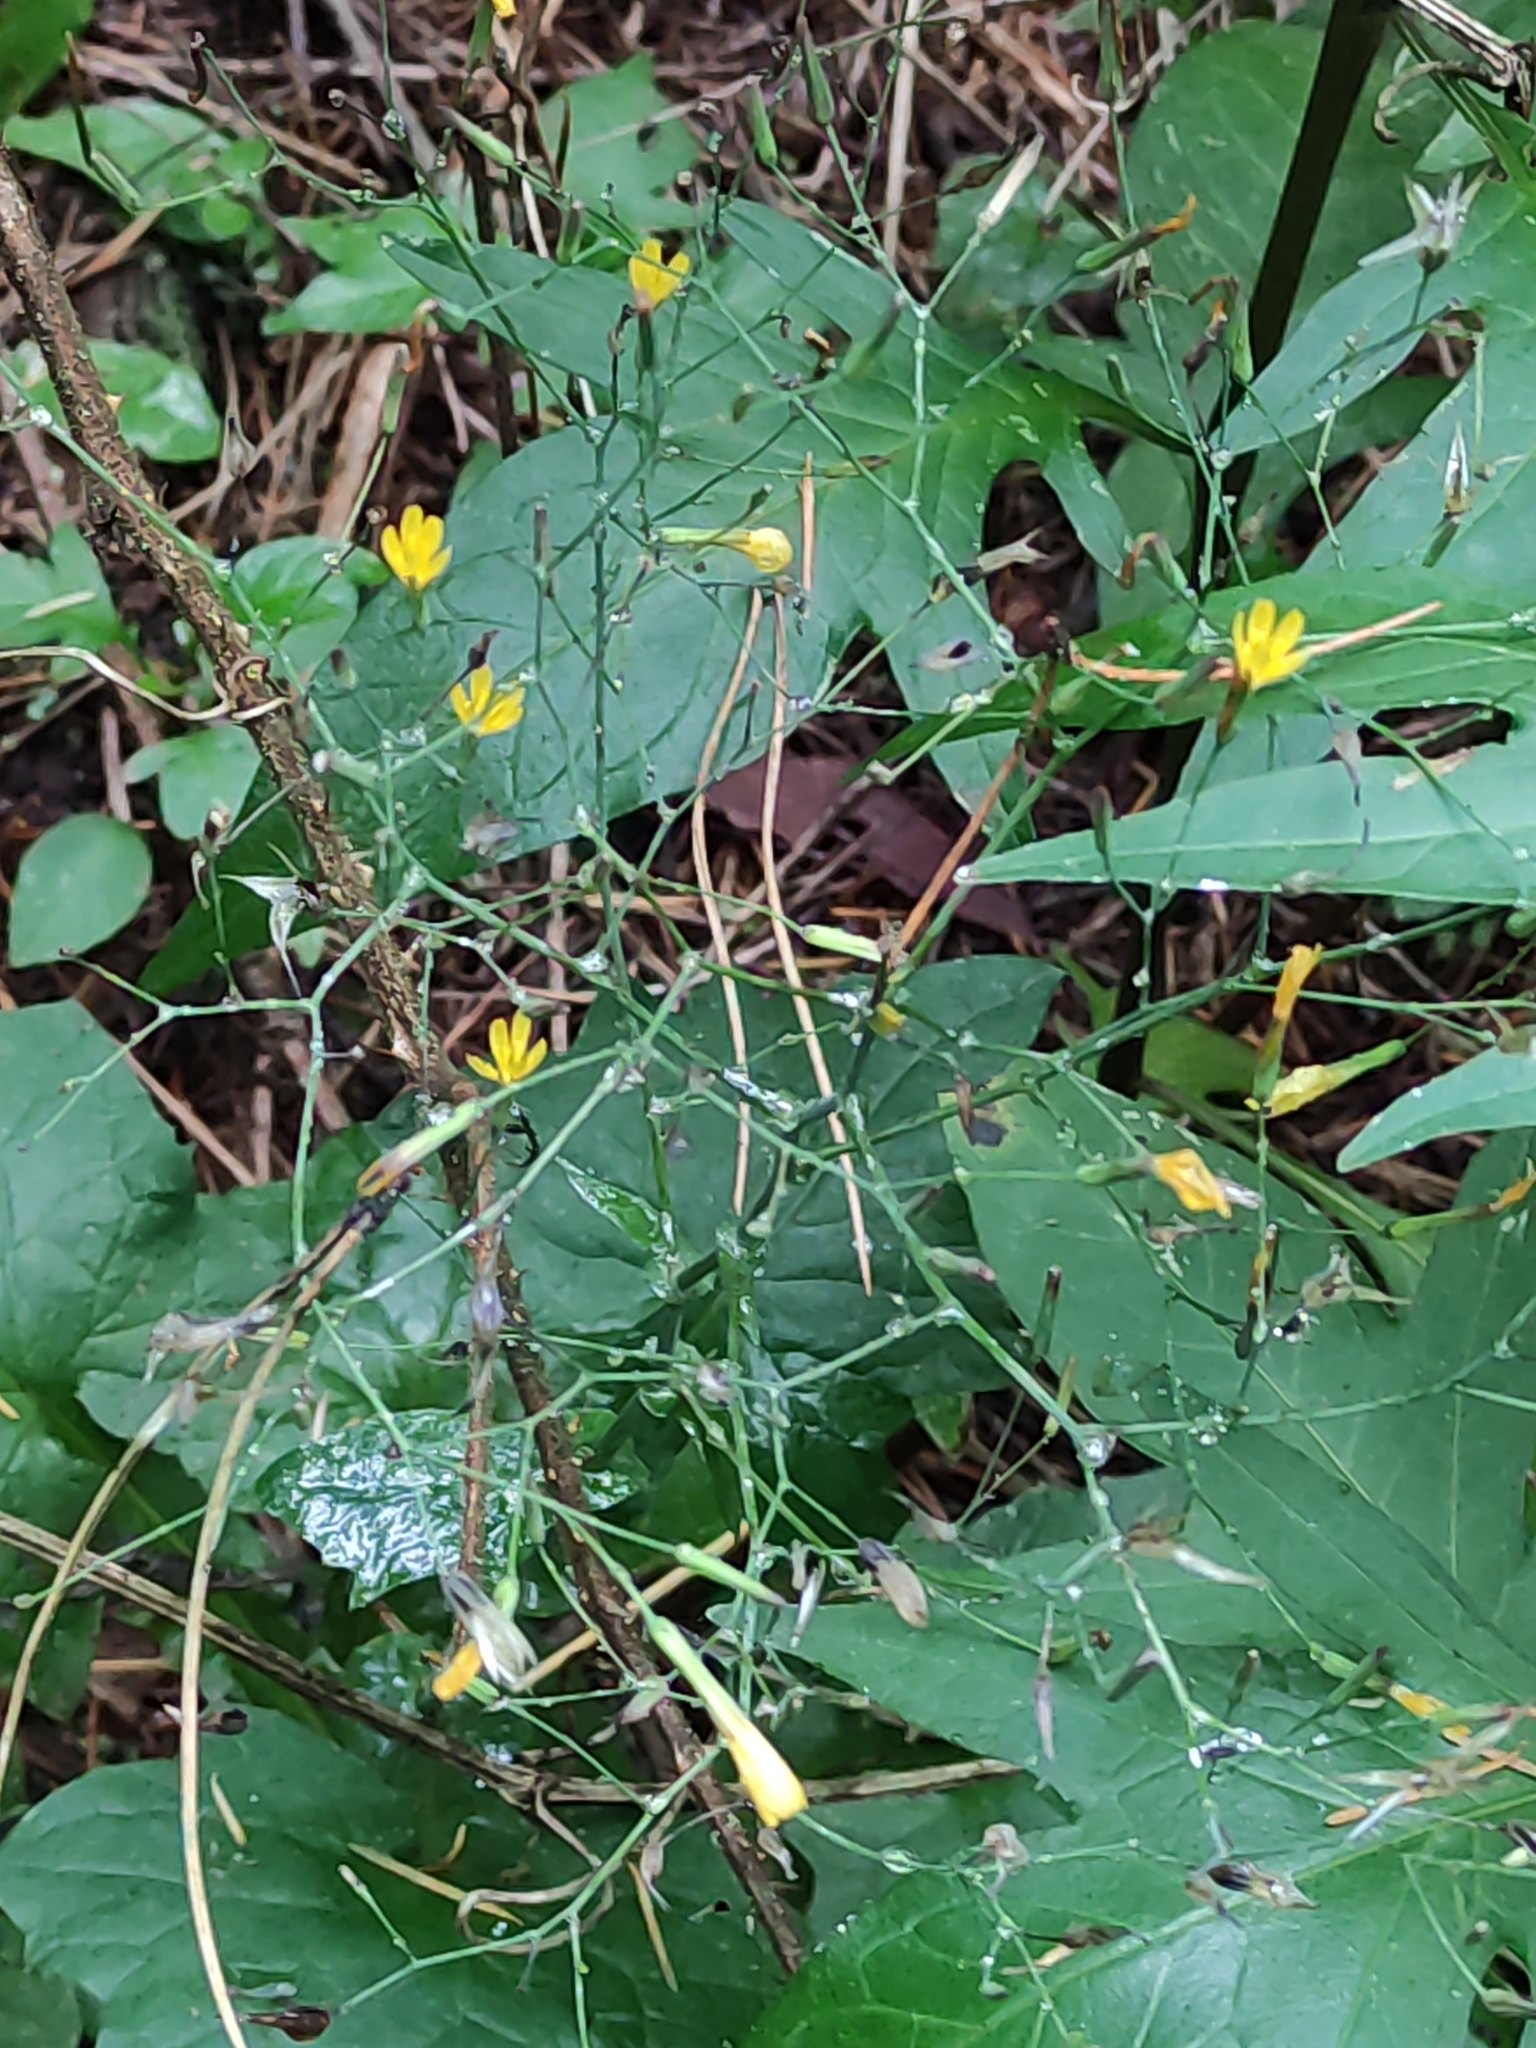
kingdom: Plantae
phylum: Tracheophyta
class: Magnoliopsida
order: Asterales
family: Asteraceae
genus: Mycelis
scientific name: Mycelis muralis
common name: Wall lettuce
